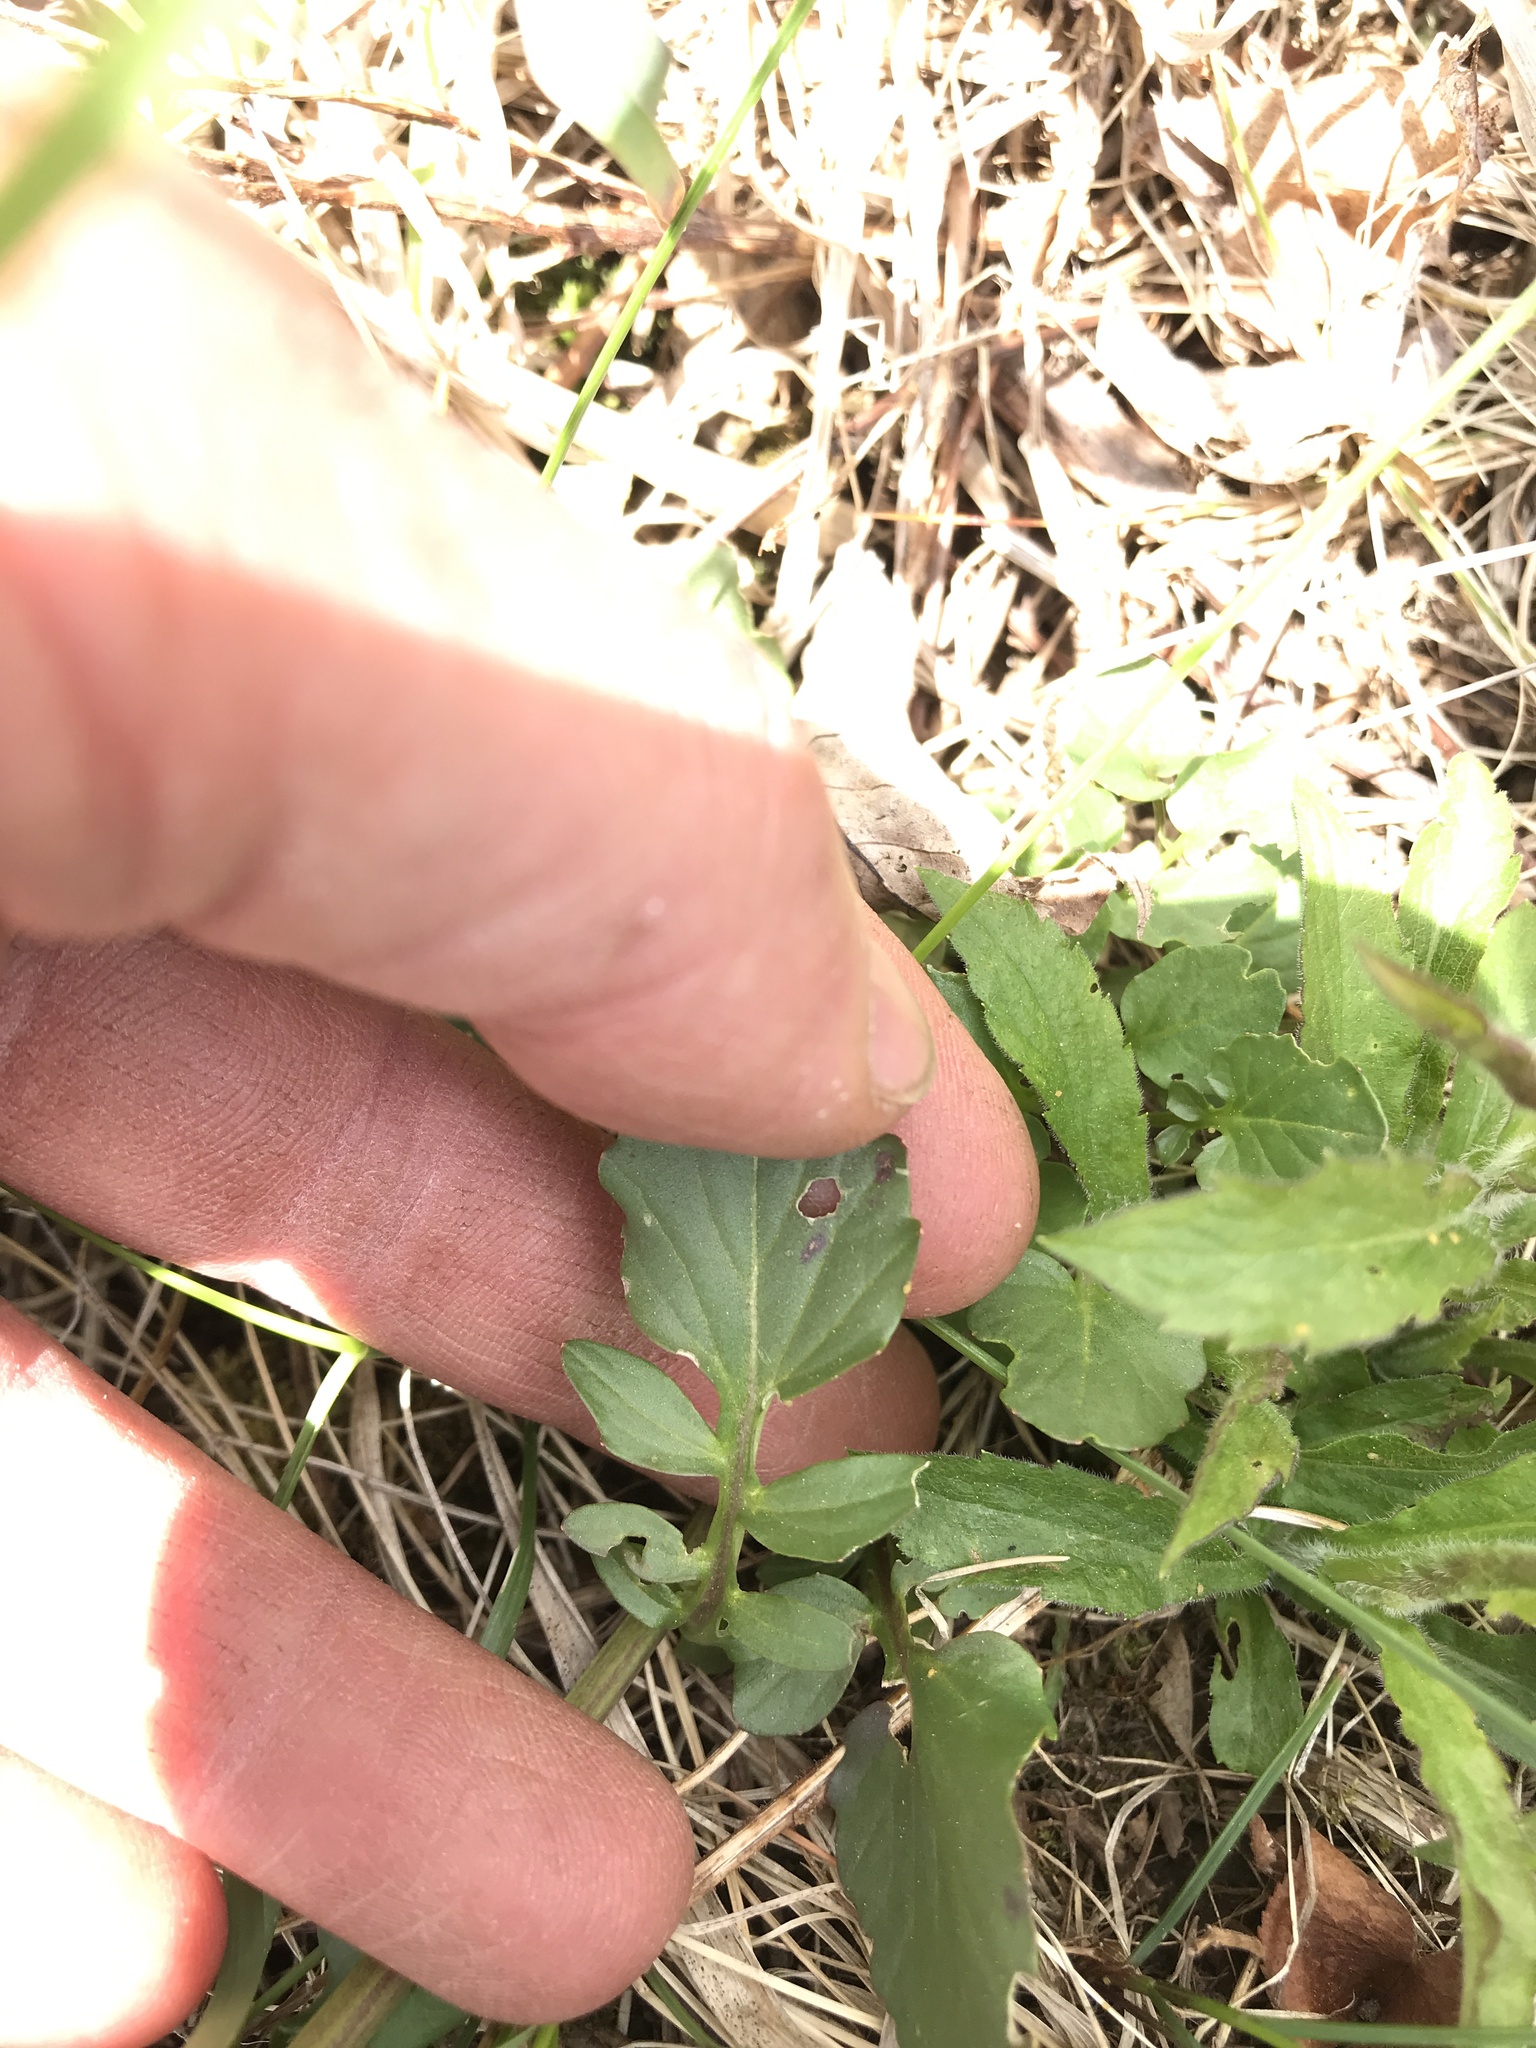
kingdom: Plantae
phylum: Tracheophyta
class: Magnoliopsida
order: Brassicales
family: Brassicaceae
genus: Barbarea
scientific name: Barbarea vulgaris
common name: Cressy-greens
